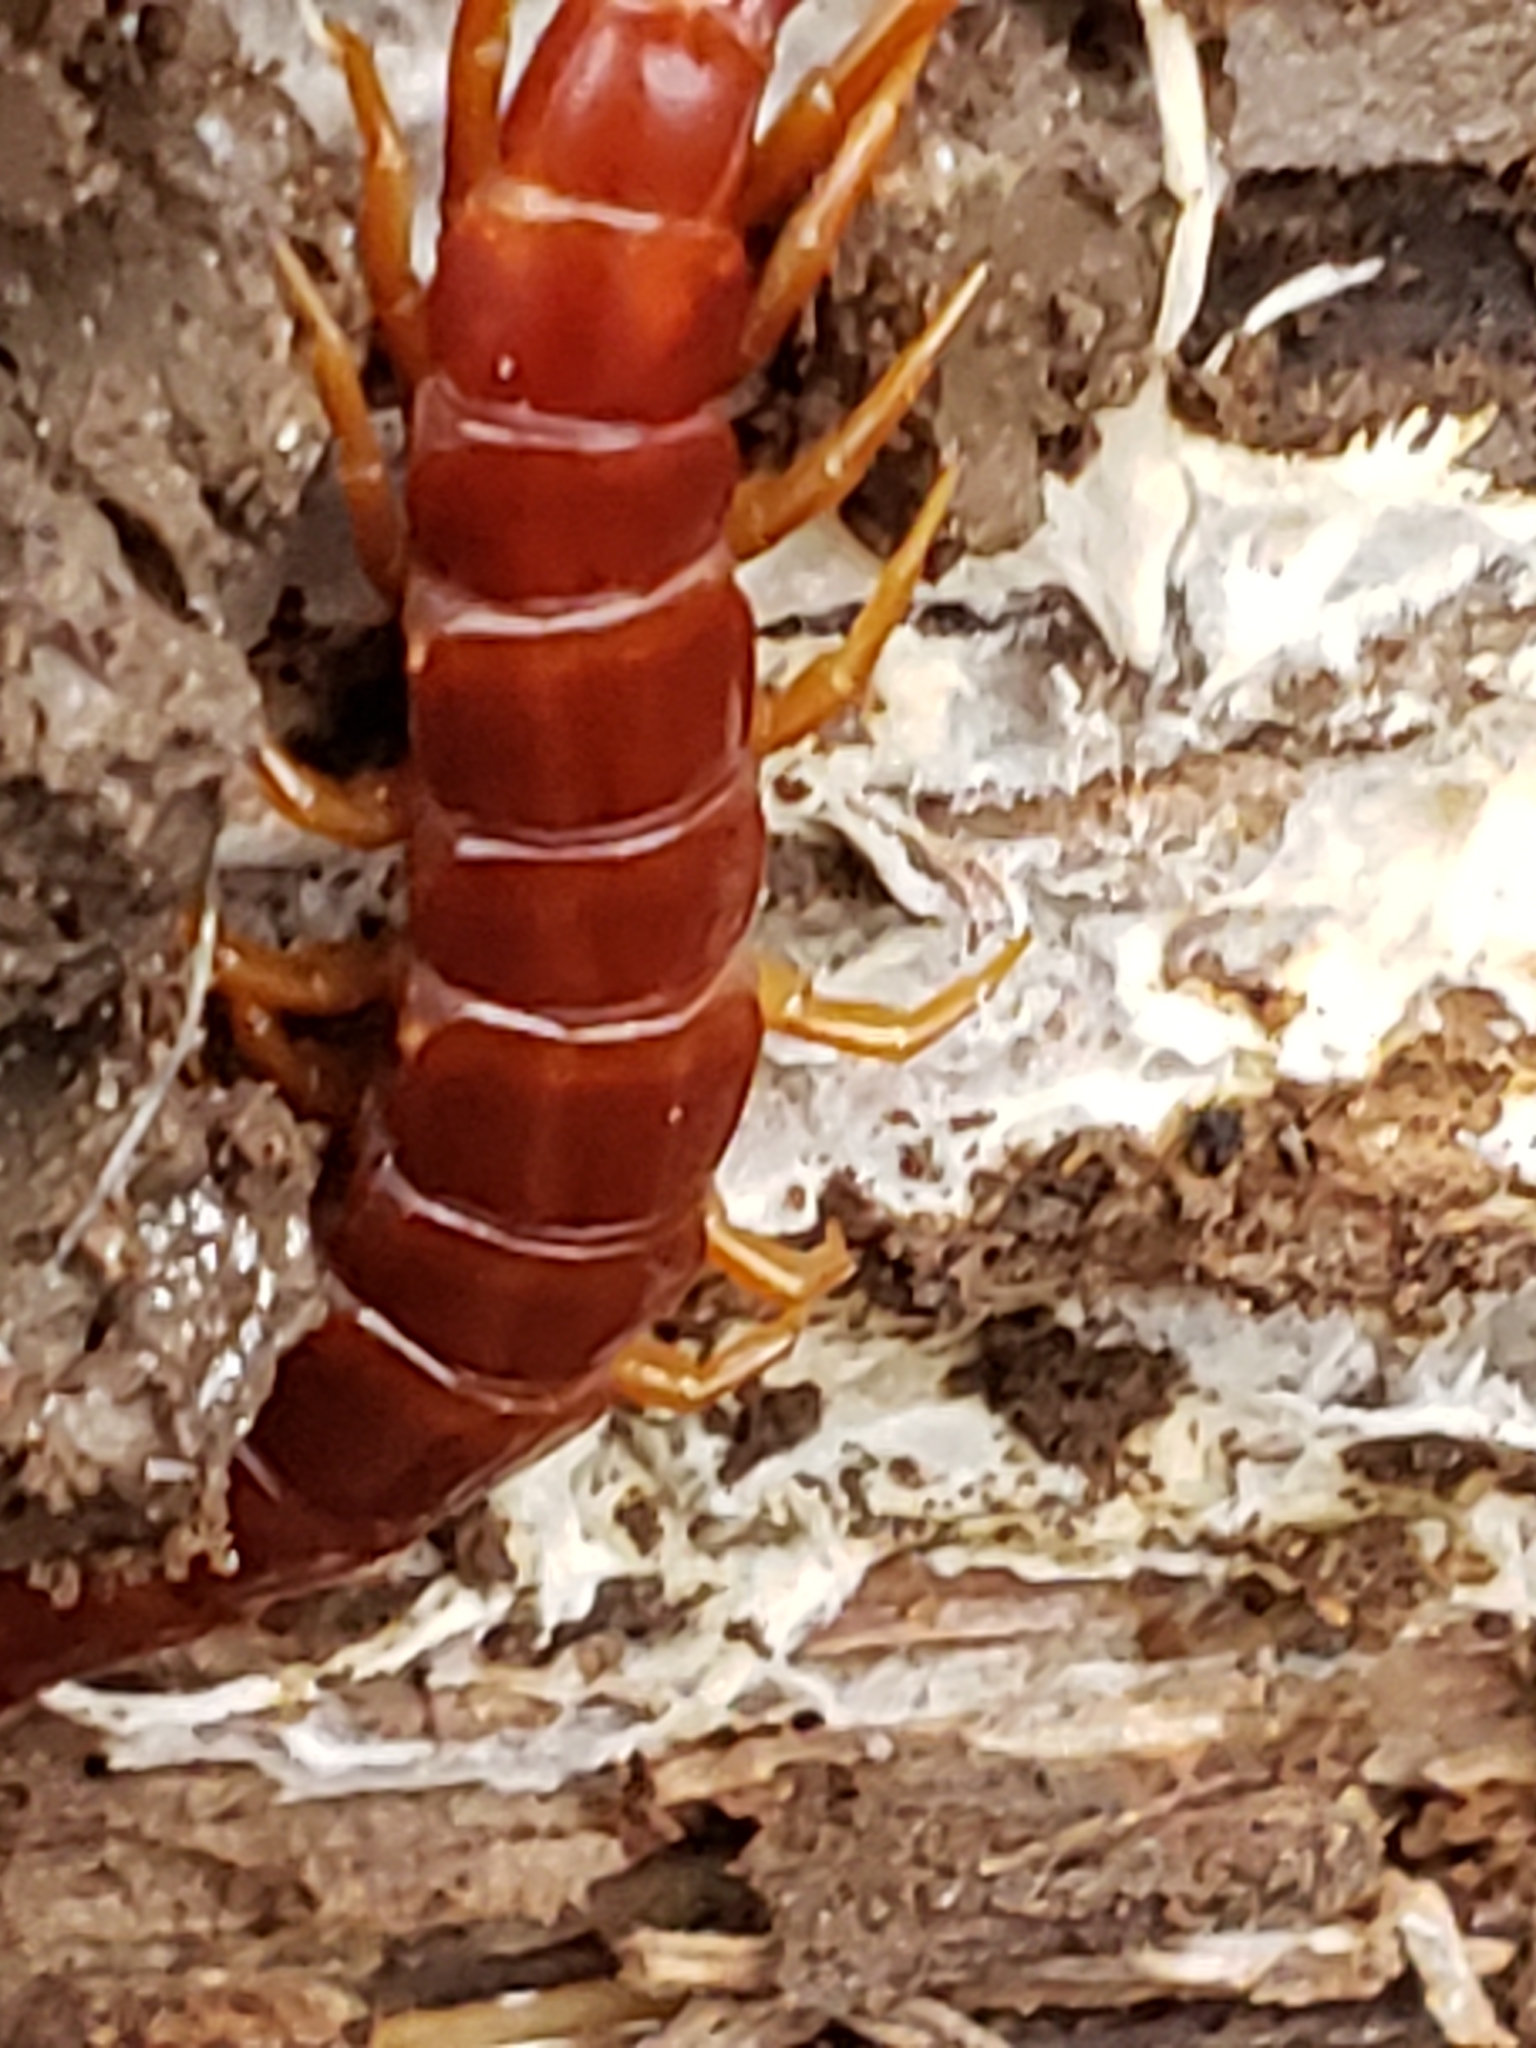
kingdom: Animalia
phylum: Arthropoda
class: Chilopoda
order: Scolopendromorpha
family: Scolopocryptopidae
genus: Scolopocryptops
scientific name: Scolopocryptops sexspinosus
